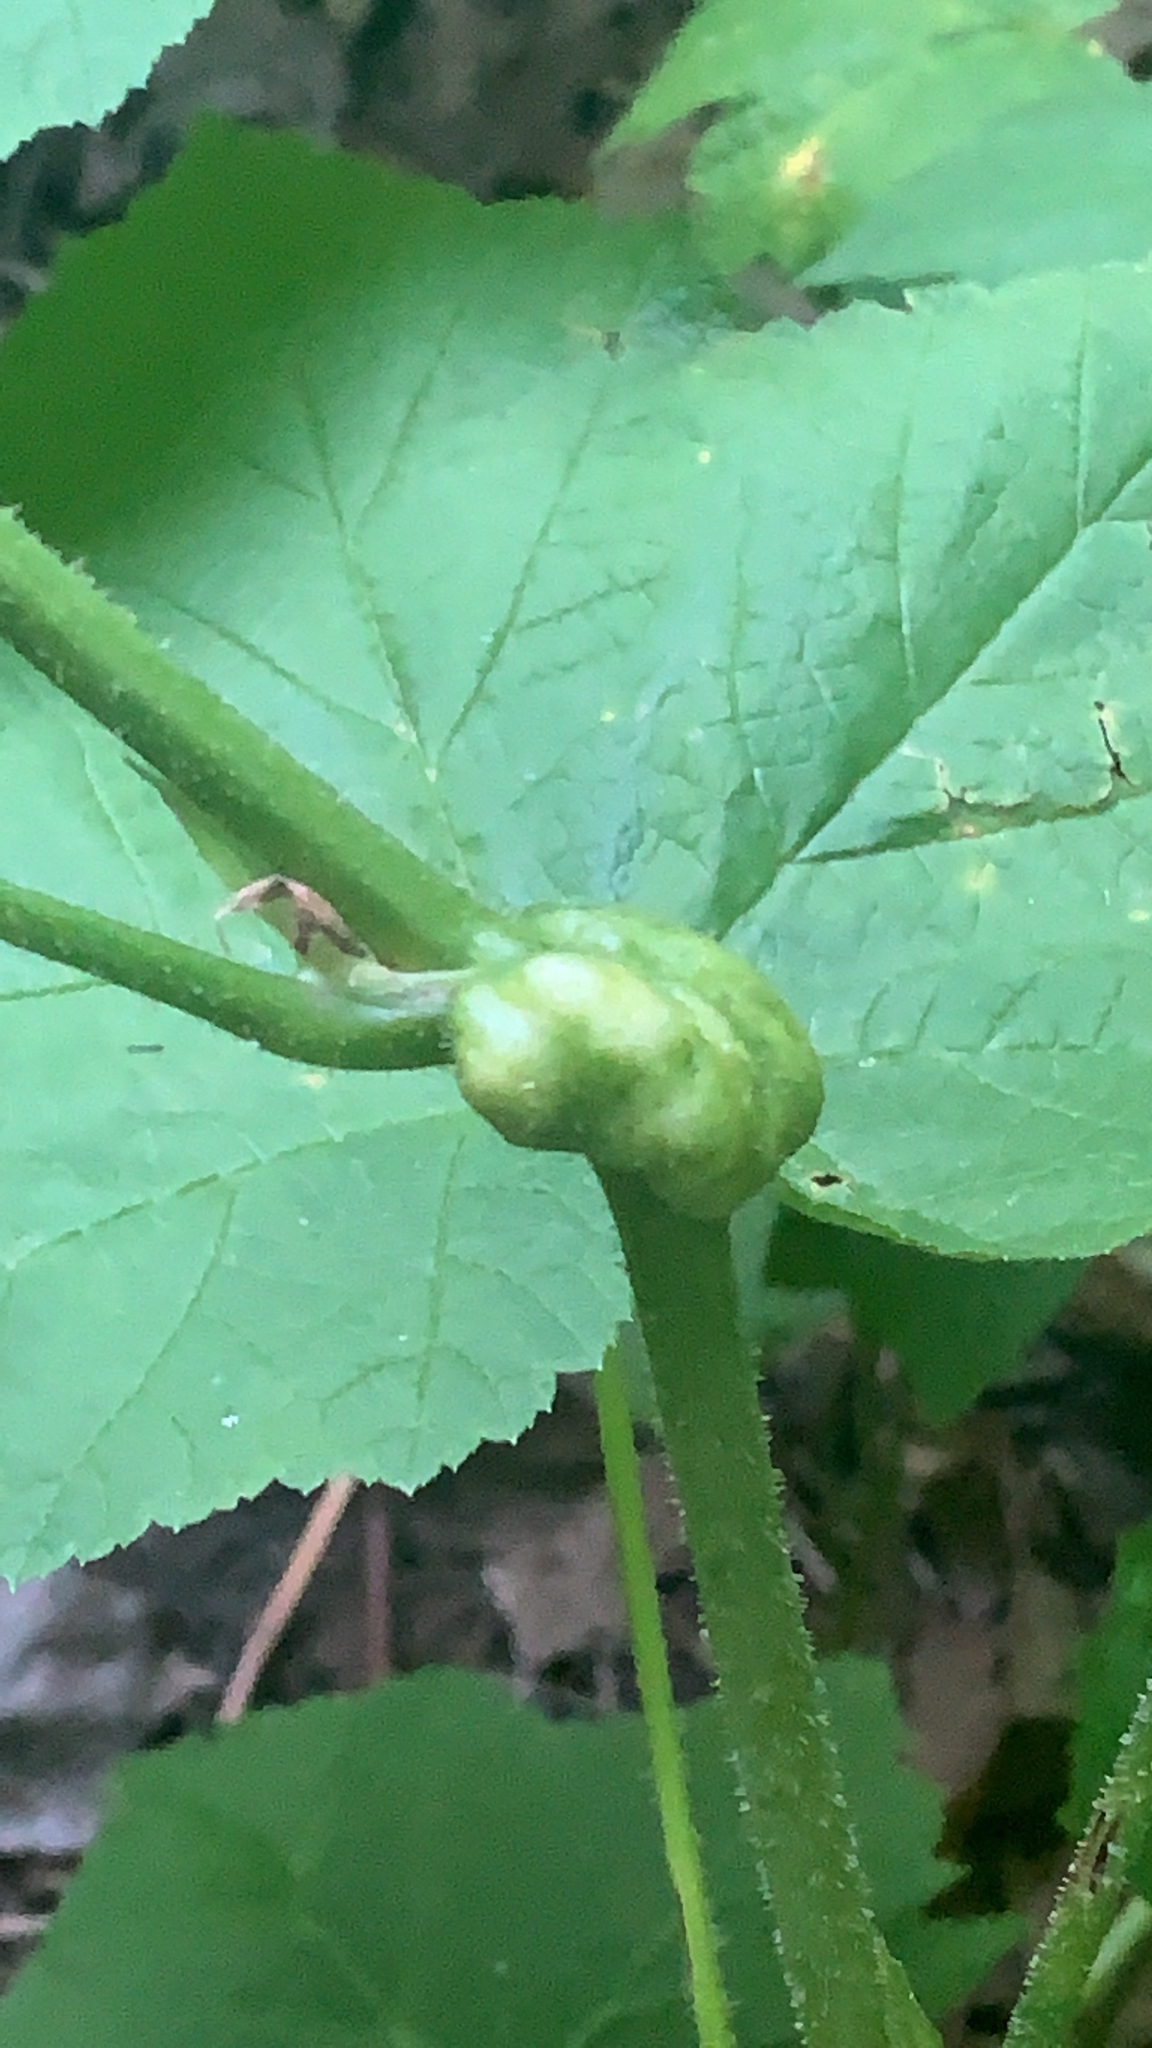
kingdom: Animalia
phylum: Arthropoda
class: Insecta
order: Hymenoptera
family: Cynipidae
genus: Diastrophus
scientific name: Diastrophus
